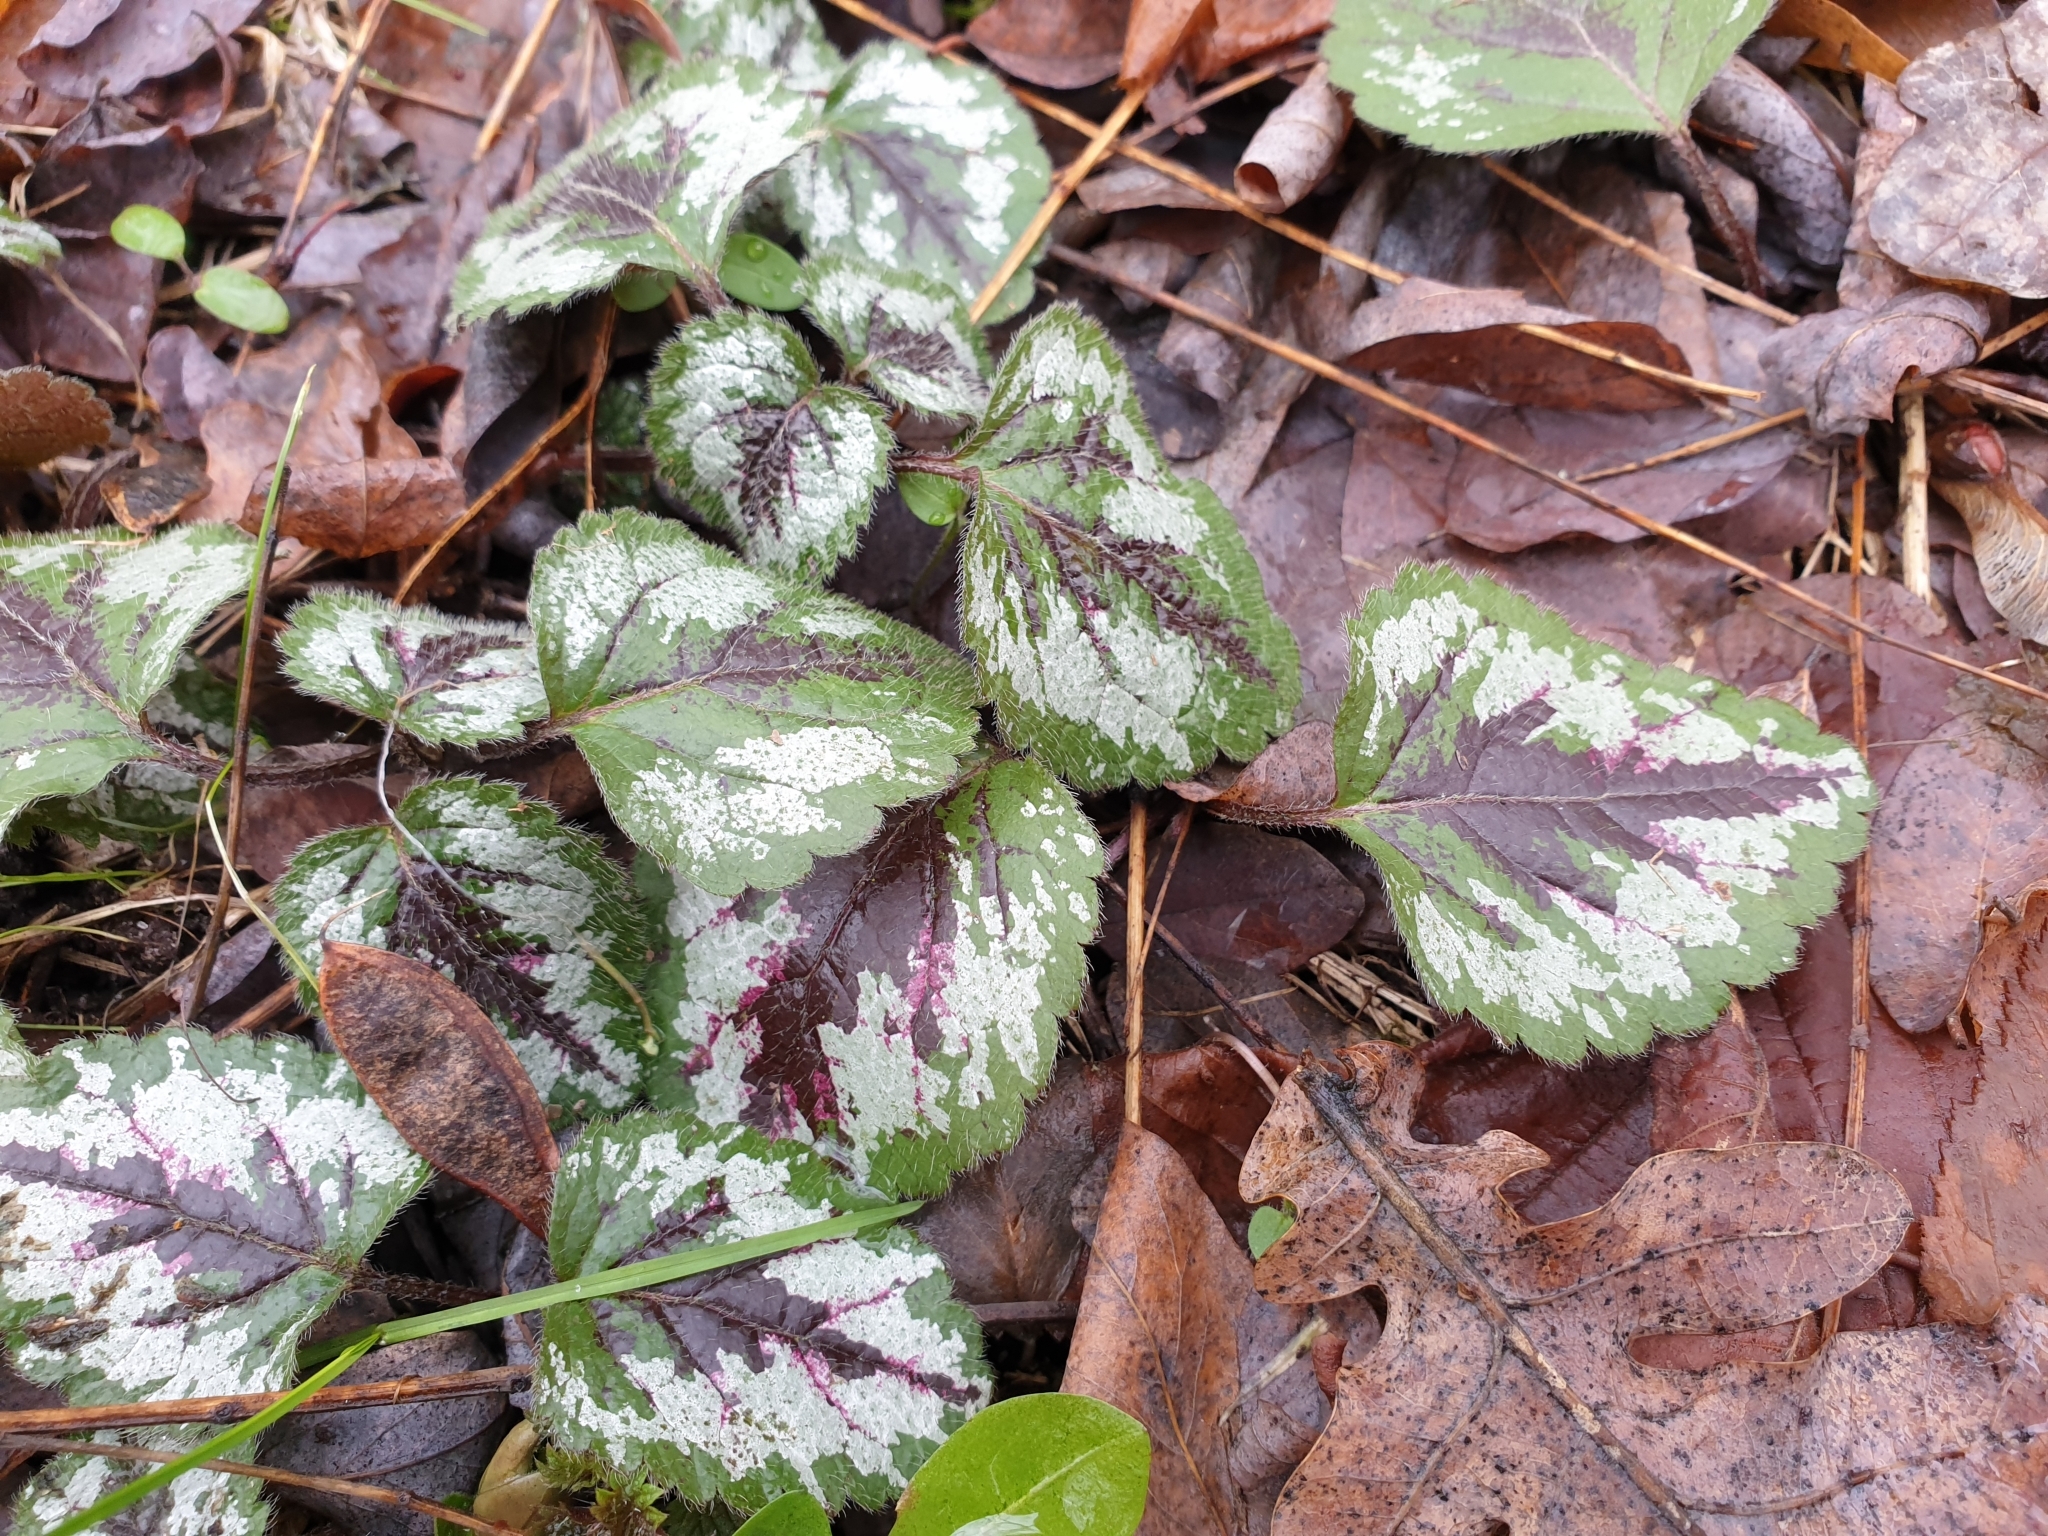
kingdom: Plantae
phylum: Tracheophyta
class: Magnoliopsida
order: Lamiales
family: Lamiaceae
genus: Lamium
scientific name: Lamium galeobdolon
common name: Yellow archangel
